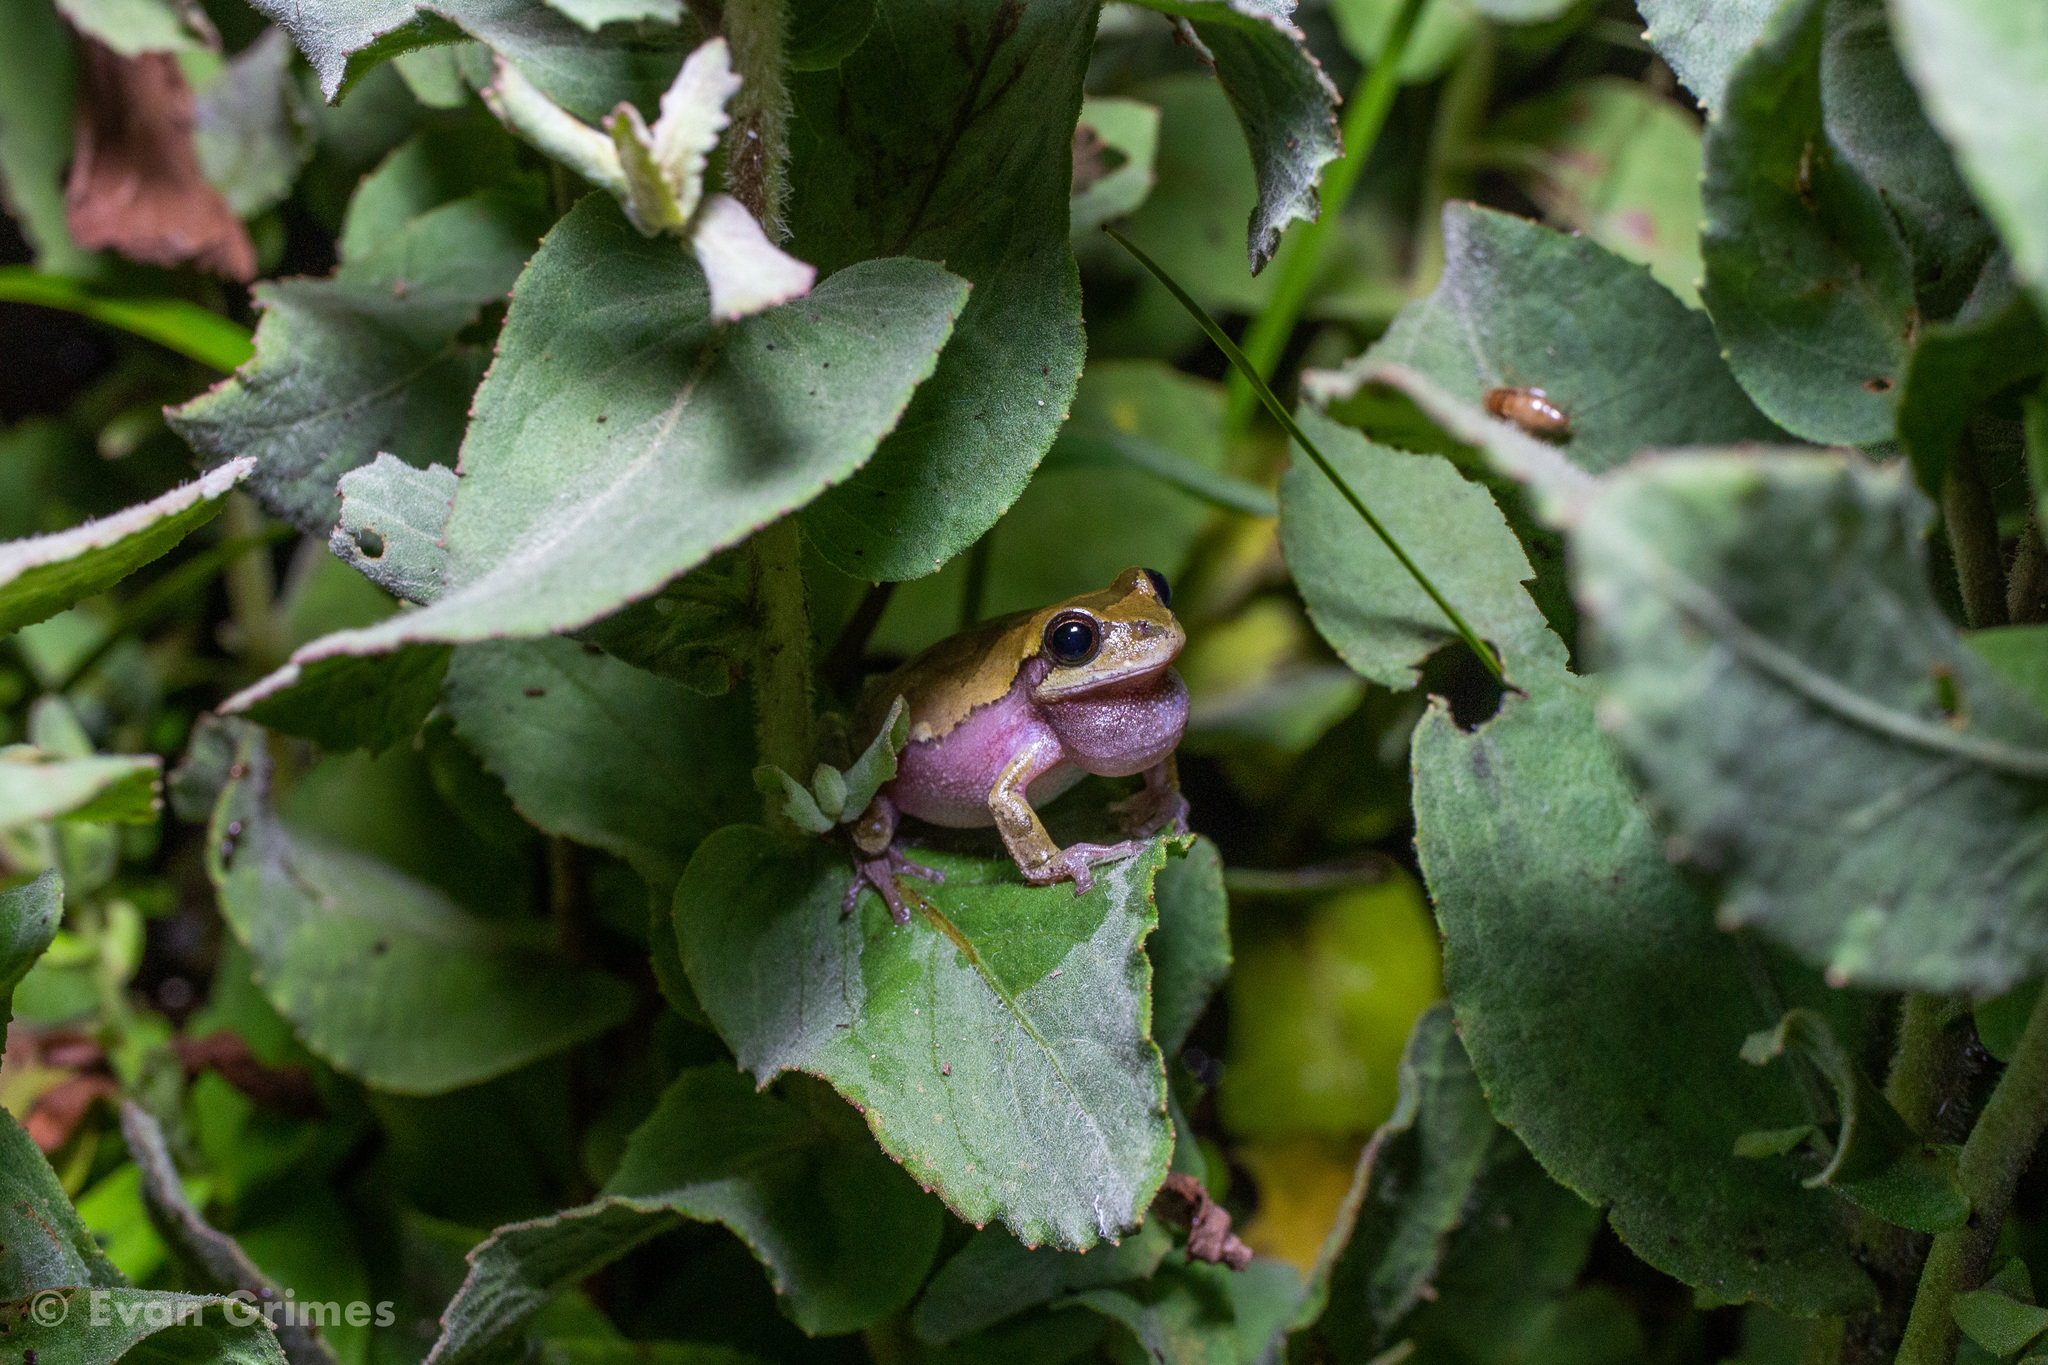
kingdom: Animalia
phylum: Chordata
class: Amphibia
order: Anura
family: Hylidae
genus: Hyla
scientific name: Hyla femoralis
